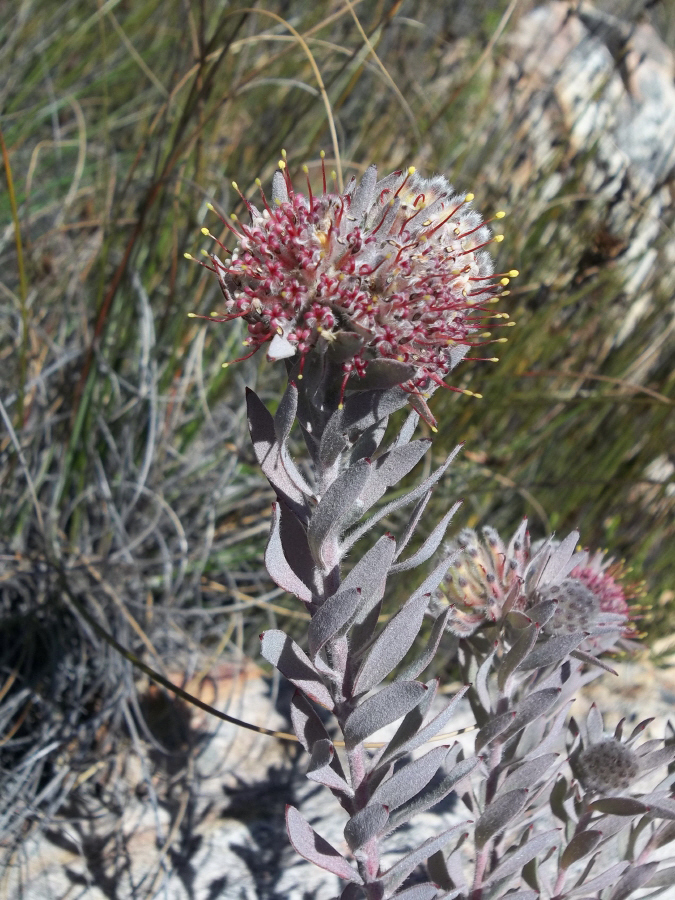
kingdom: Plantae
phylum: Tracheophyta
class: Magnoliopsida
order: Proteales
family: Proteaceae
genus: Leucospermum
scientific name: Leucospermum wittebergense
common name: Swartberg pincushion
